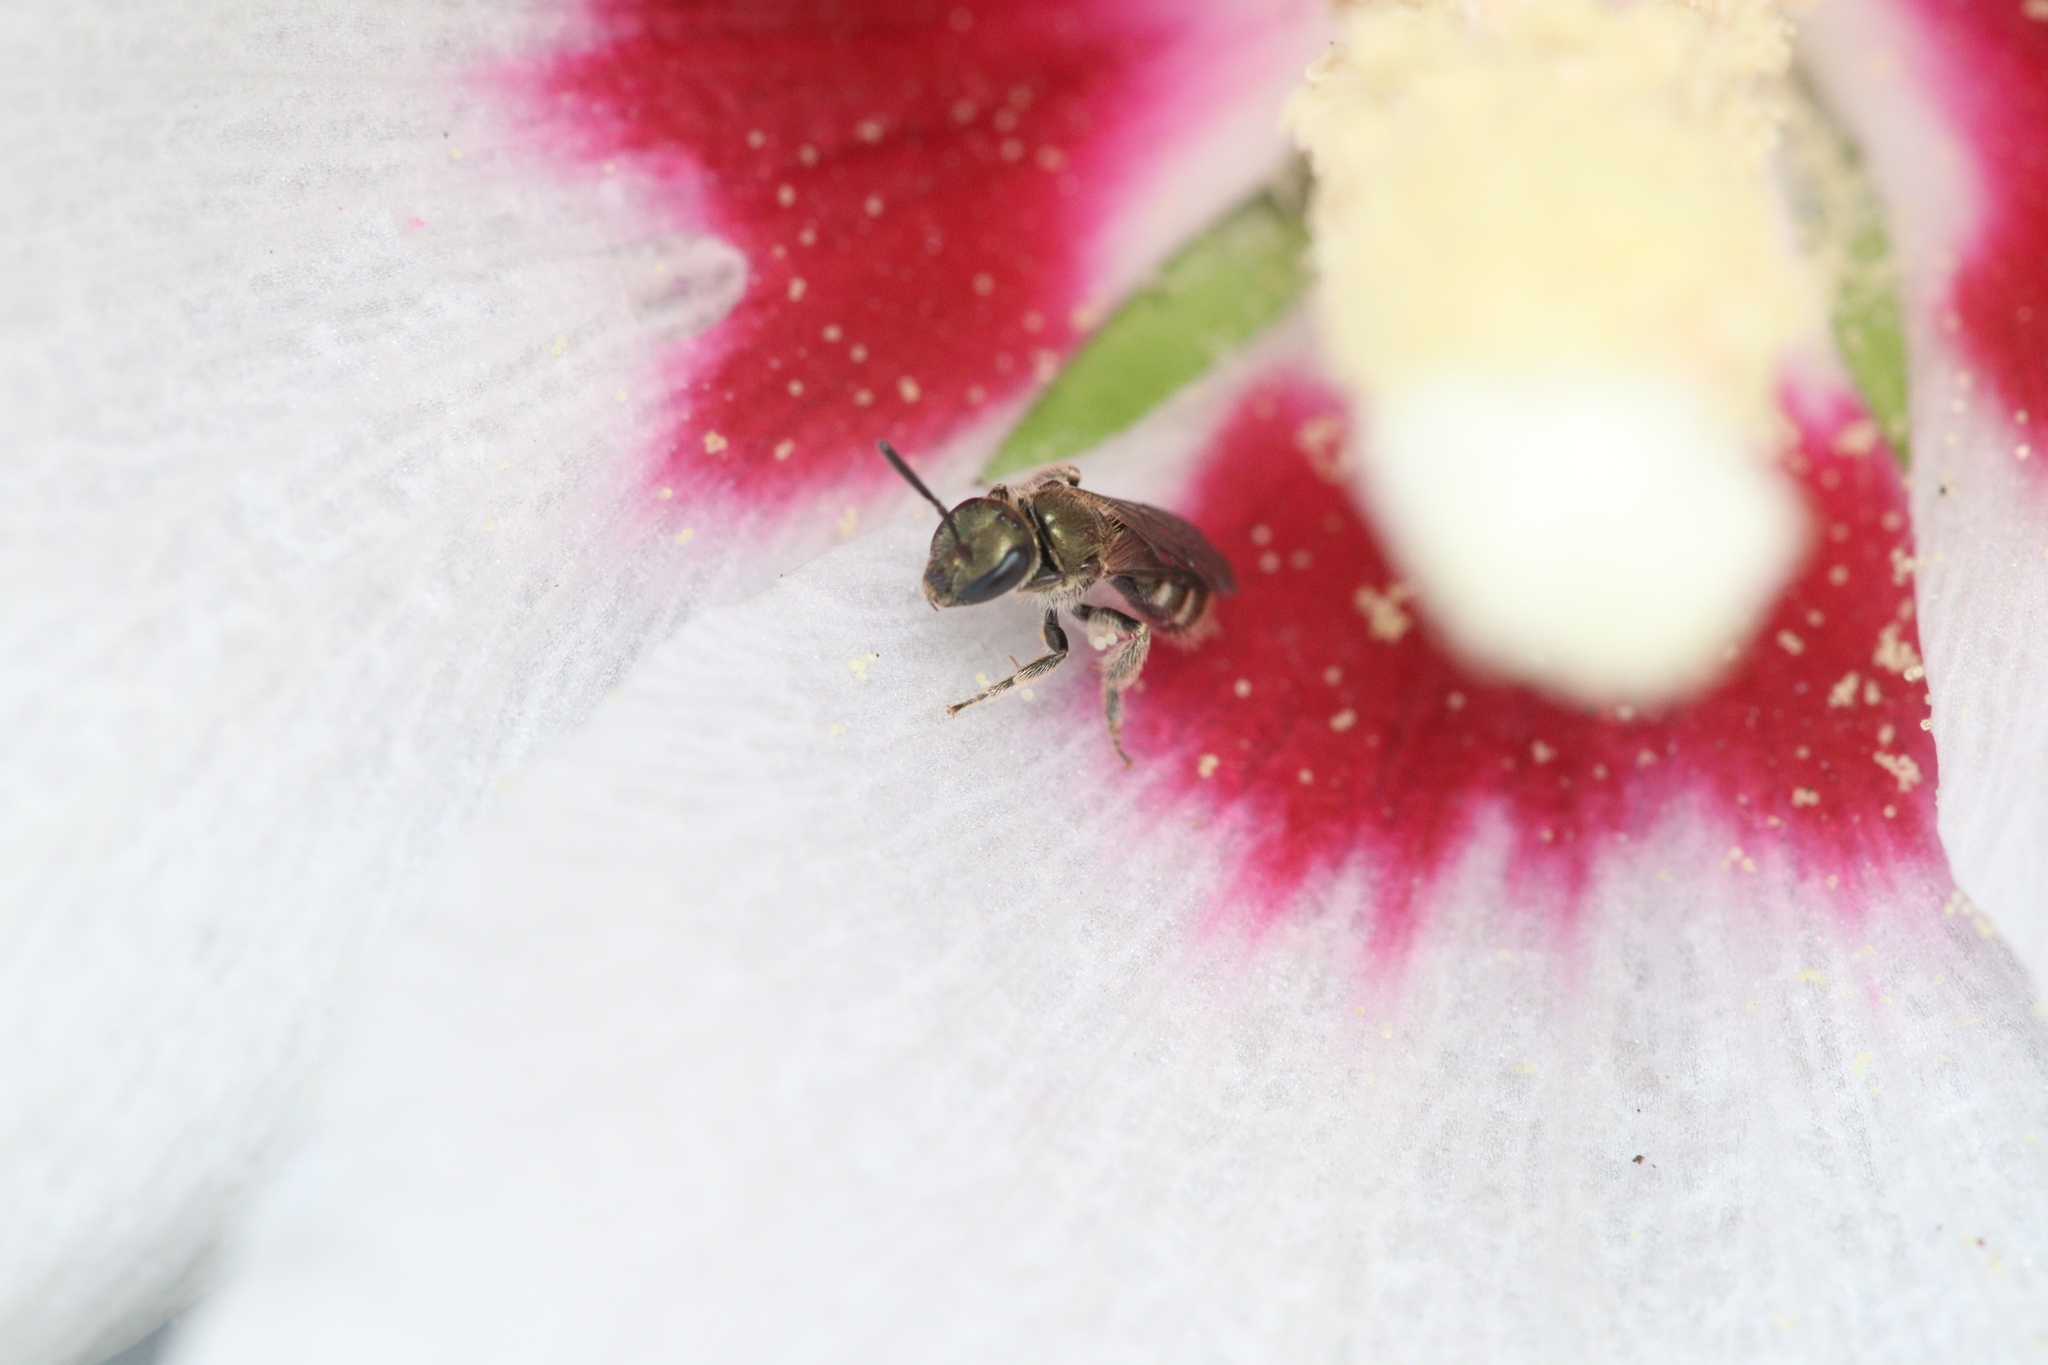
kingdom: Animalia
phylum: Chordata
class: Aves
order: Coraciiformes
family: Meropidae
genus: Merops
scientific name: Merops apiaster
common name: European bee-eater
